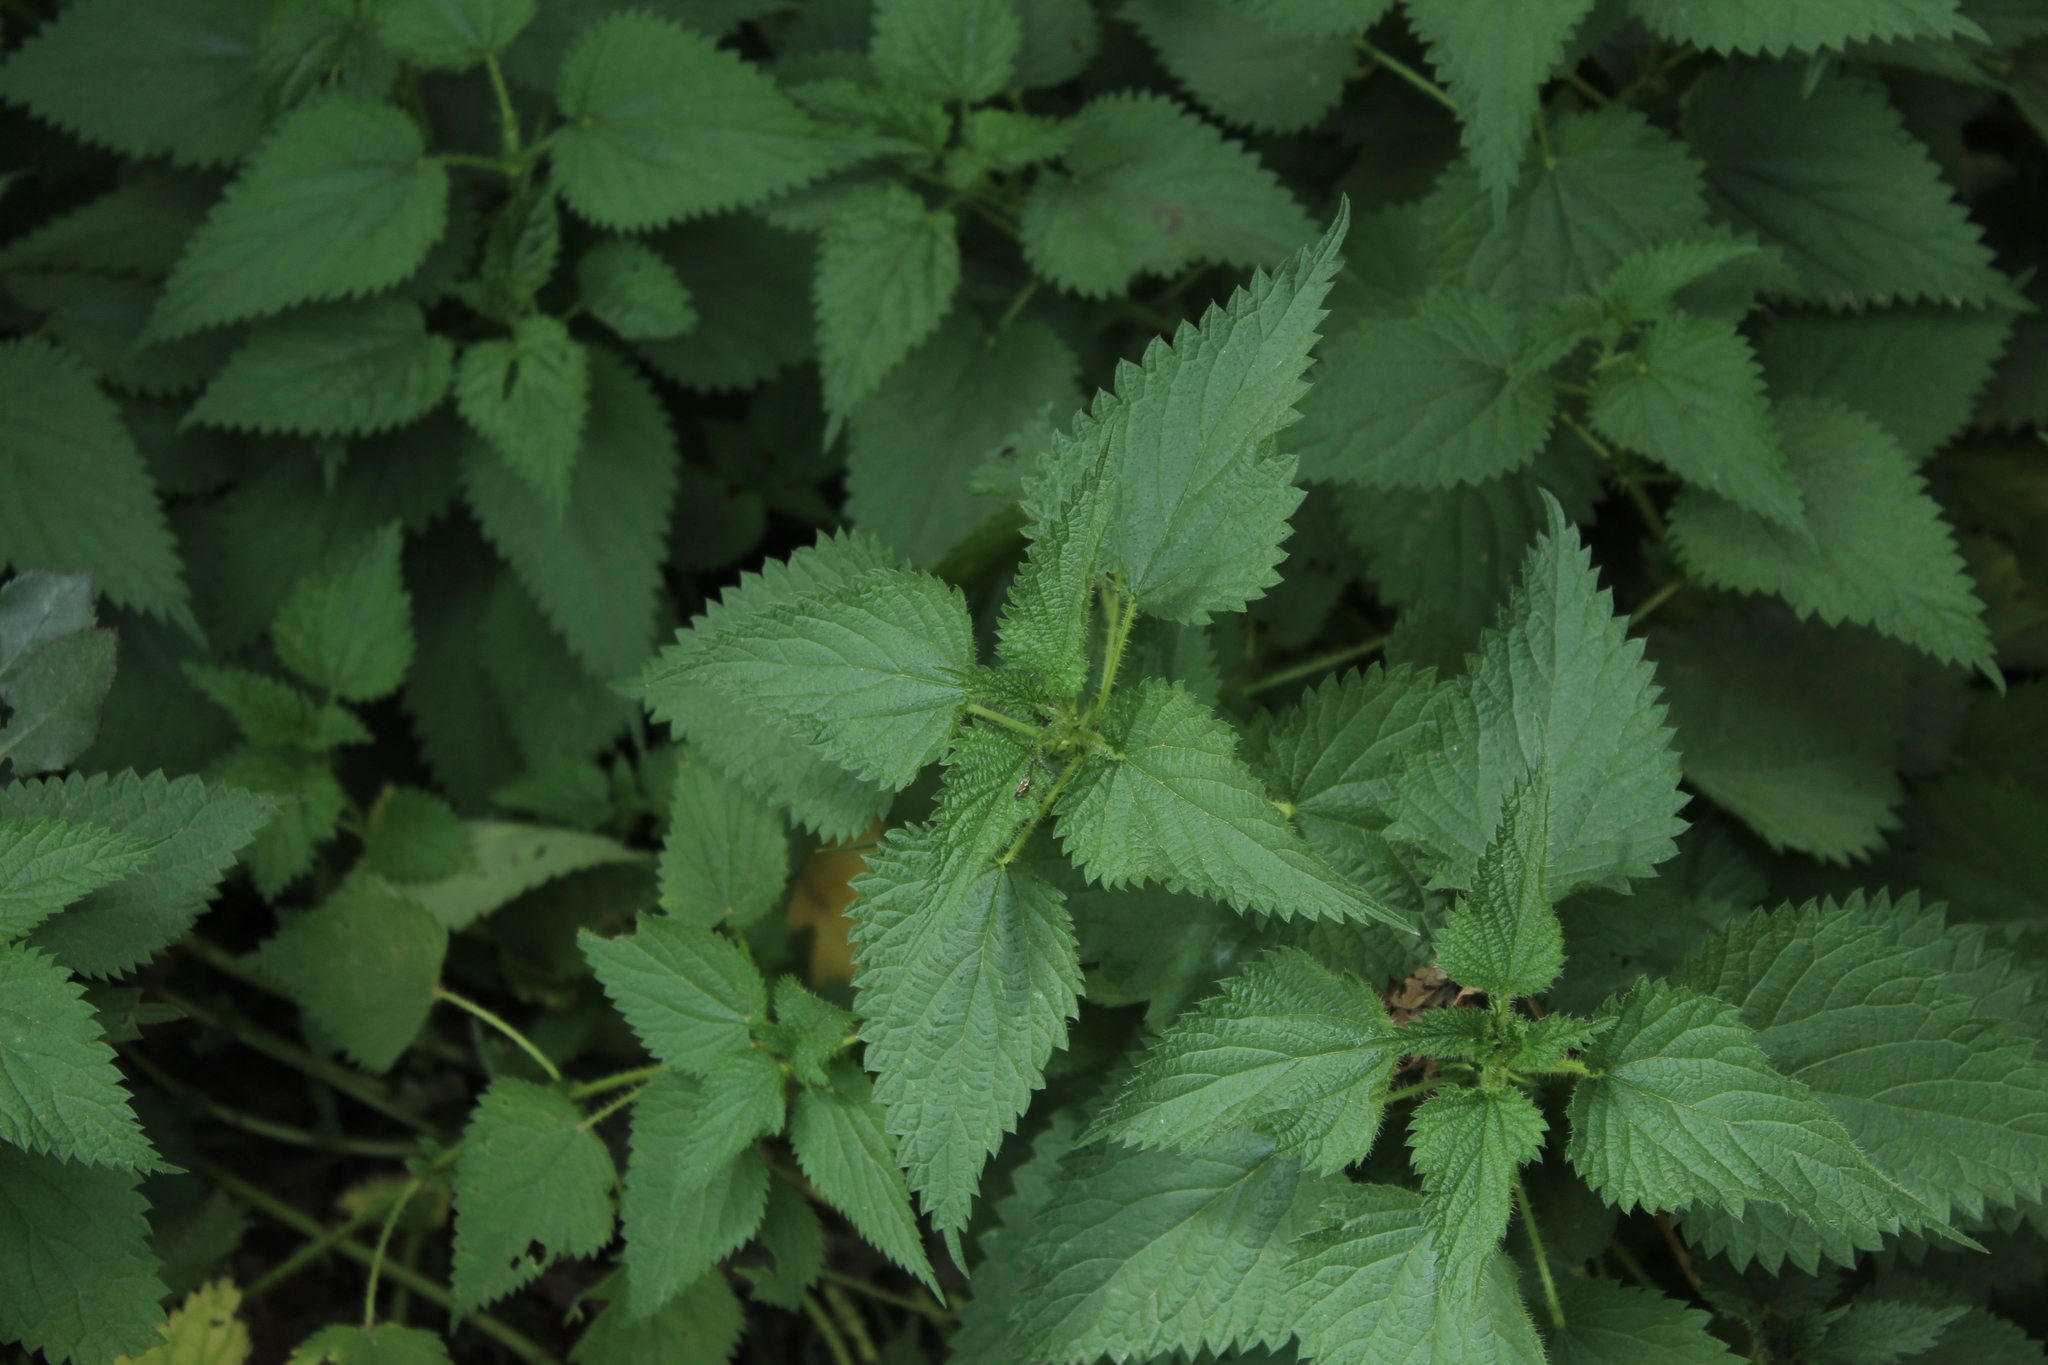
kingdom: Plantae
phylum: Tracheophyta
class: Magnoliopsida
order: Rosales
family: Urticaceae
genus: Urtica
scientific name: Urtica dioica
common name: Common nettle
